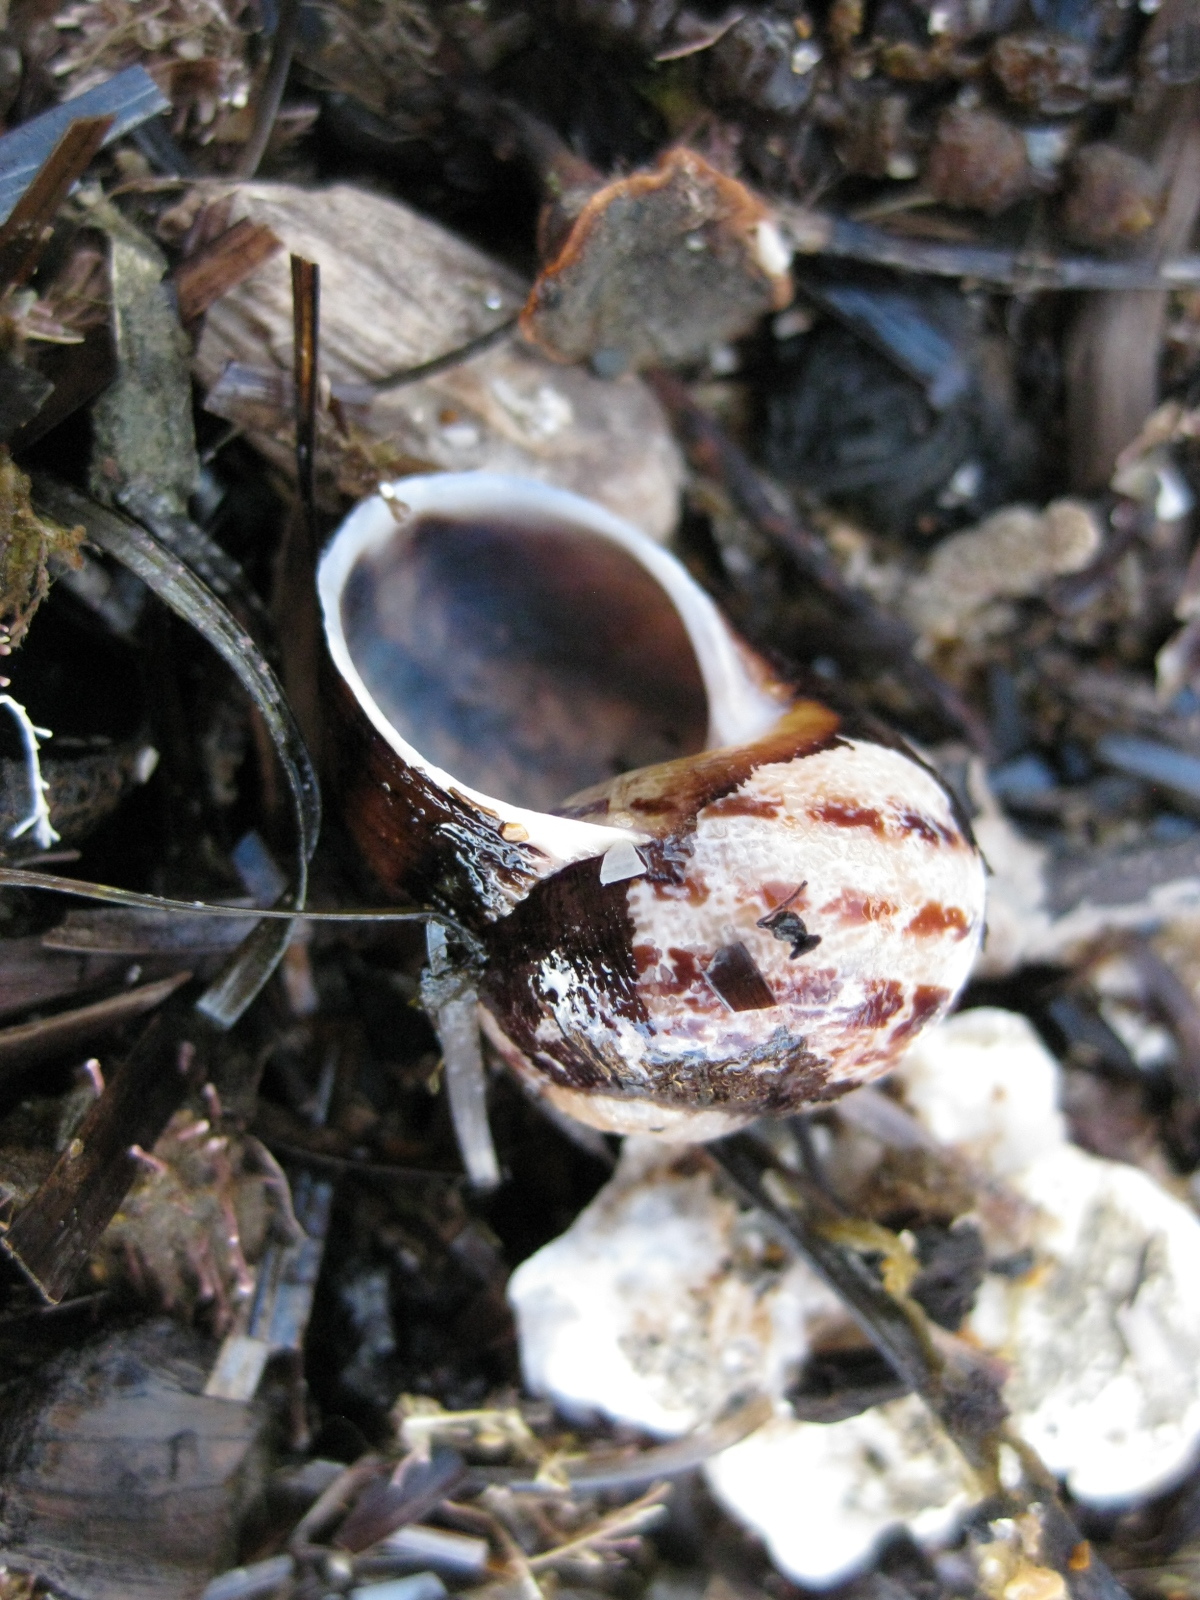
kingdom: Animalia
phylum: Mollusca
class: Gastropoda
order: Stylommatophora
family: Helicidae
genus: Cornu
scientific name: Cornu aspersum
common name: Brown garden snail
